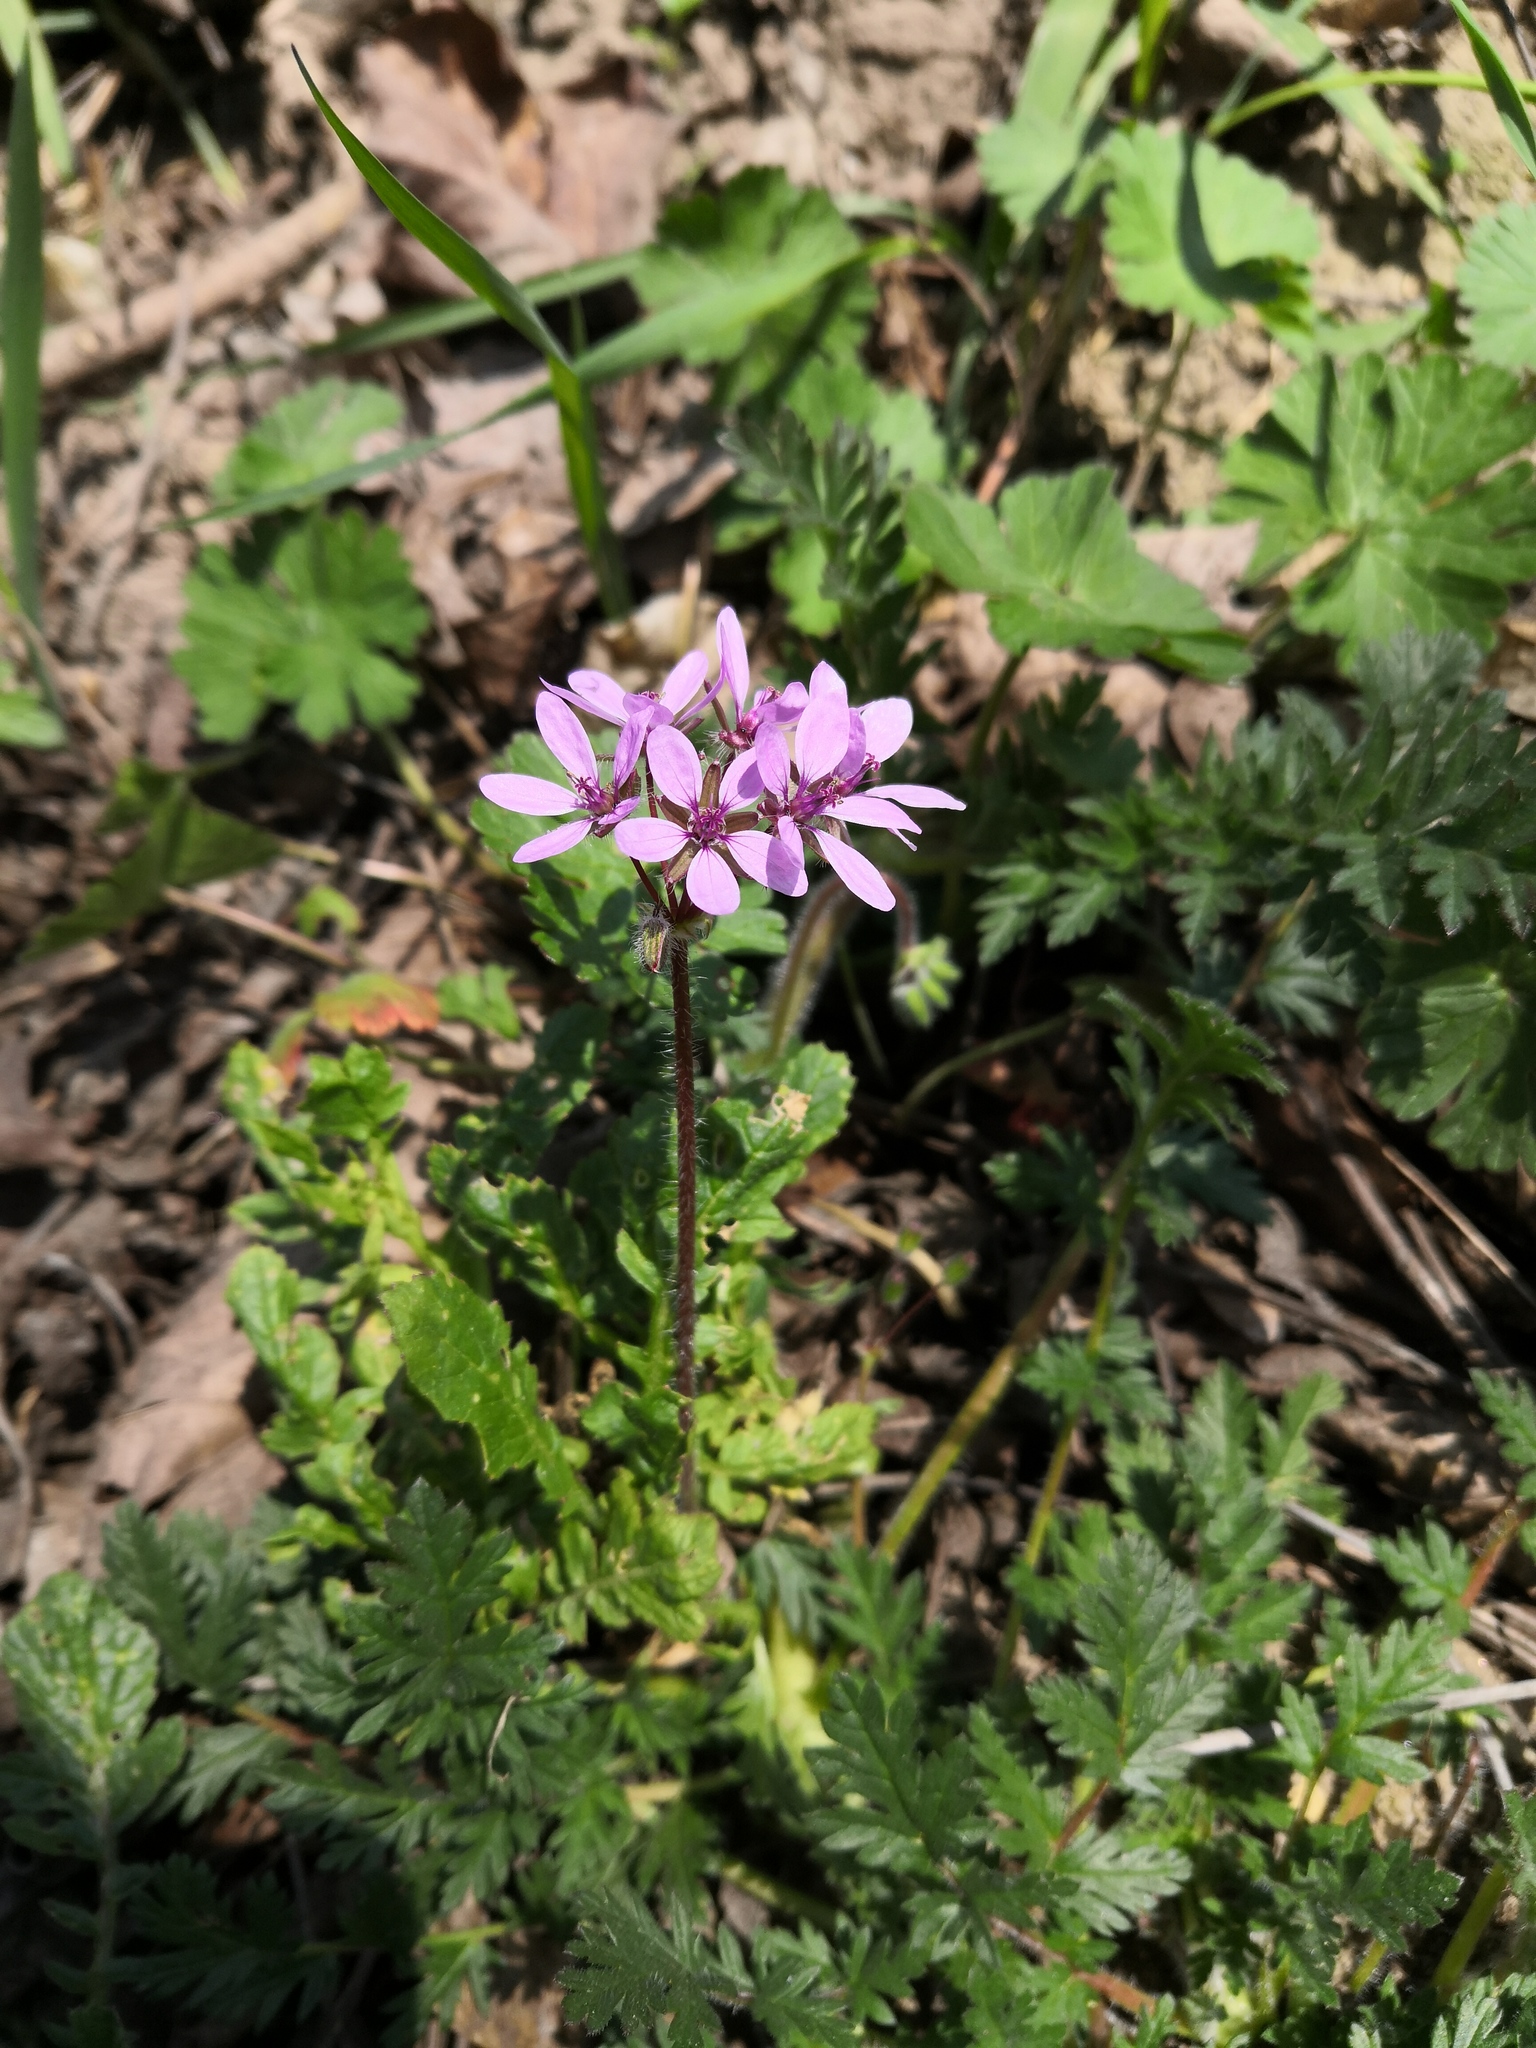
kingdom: Plantae
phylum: Tracheophyta
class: Magnoliopsida
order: Geraniales
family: Geraniaceae
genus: Erodium
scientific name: Erodium cicutarium
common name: Common stork's-bill
